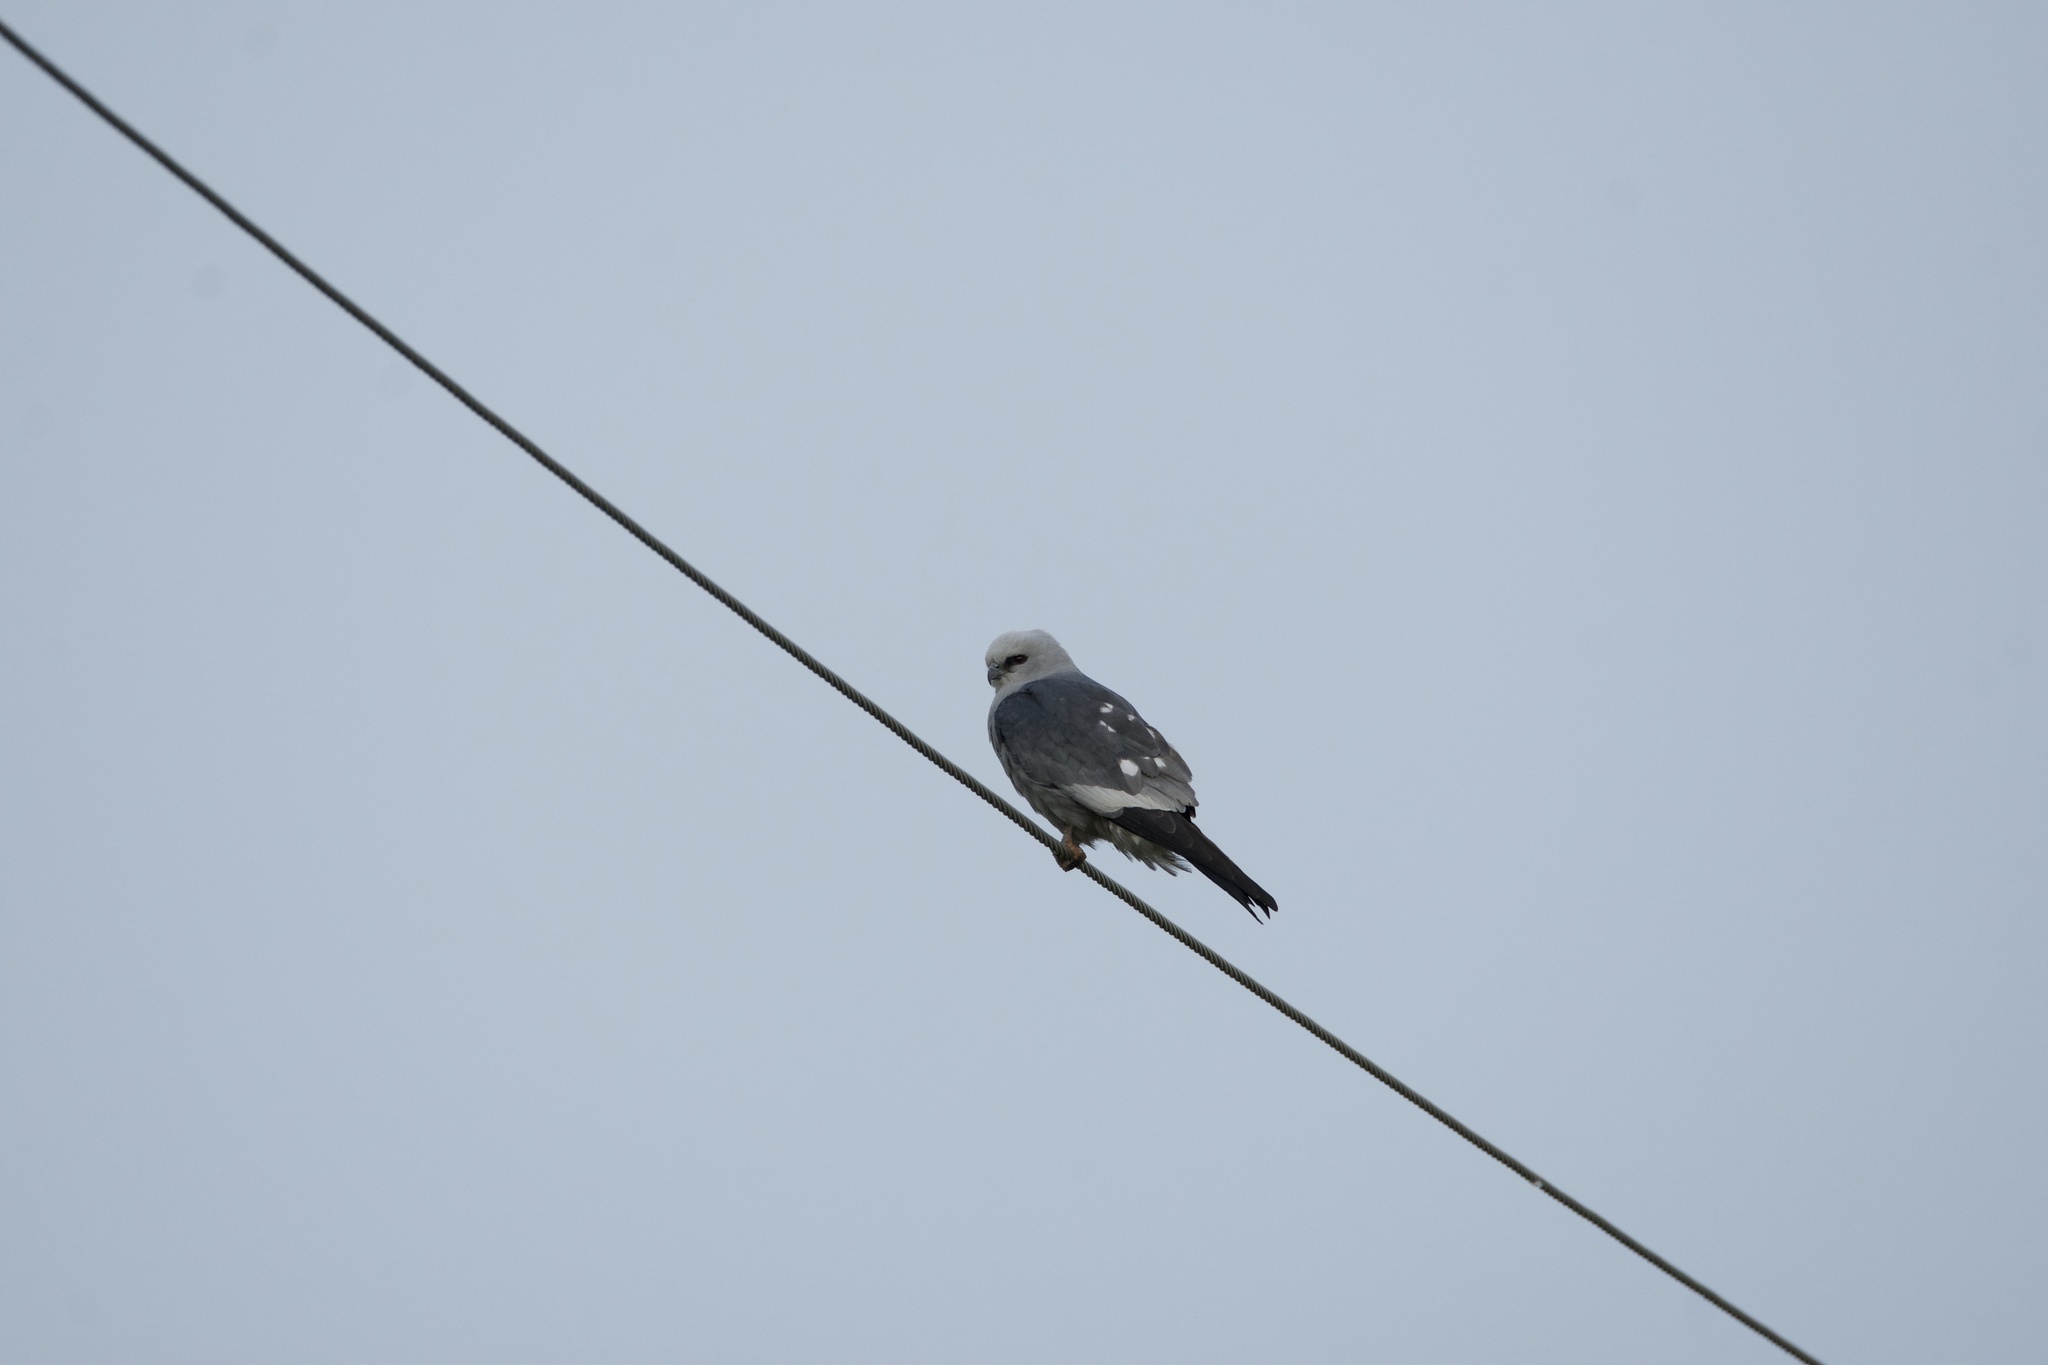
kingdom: Animalia
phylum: Chordata
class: Aves
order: Accipitriformes
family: Accipitridae
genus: Ictinia
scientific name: Ictinia mississippiensis
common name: Mississippi kite
